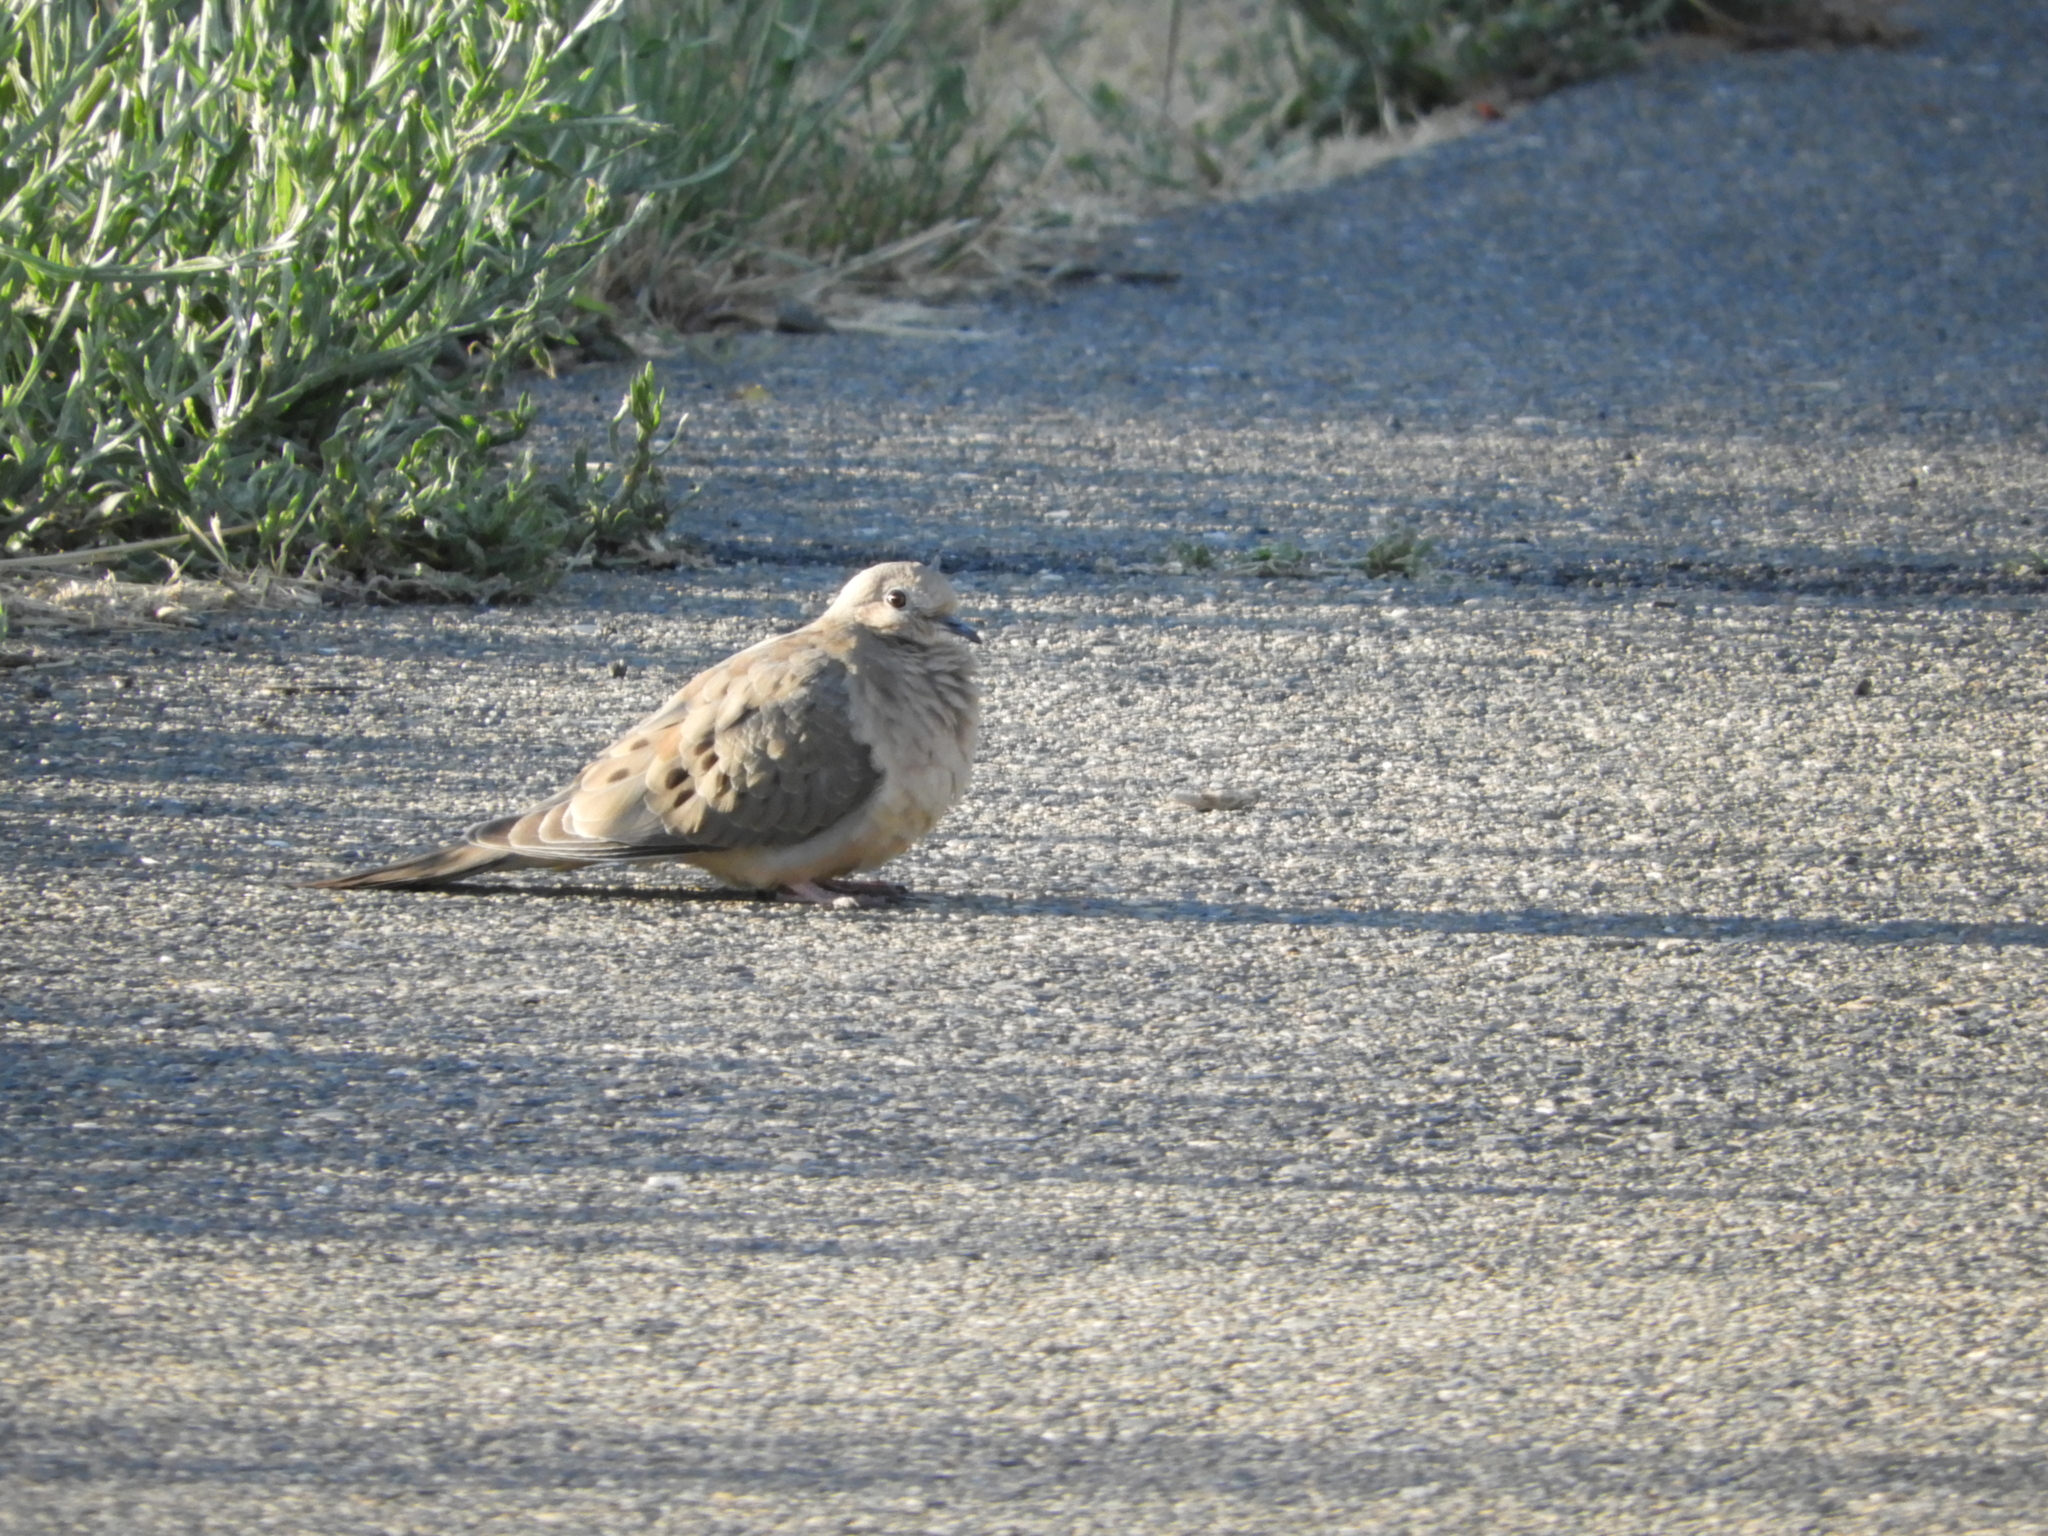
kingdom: Animalia
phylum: Chordata
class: Aves
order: Columbiformes
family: Columbidae
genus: Zenaida
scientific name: Zenaida macroura
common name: Mourning dove
